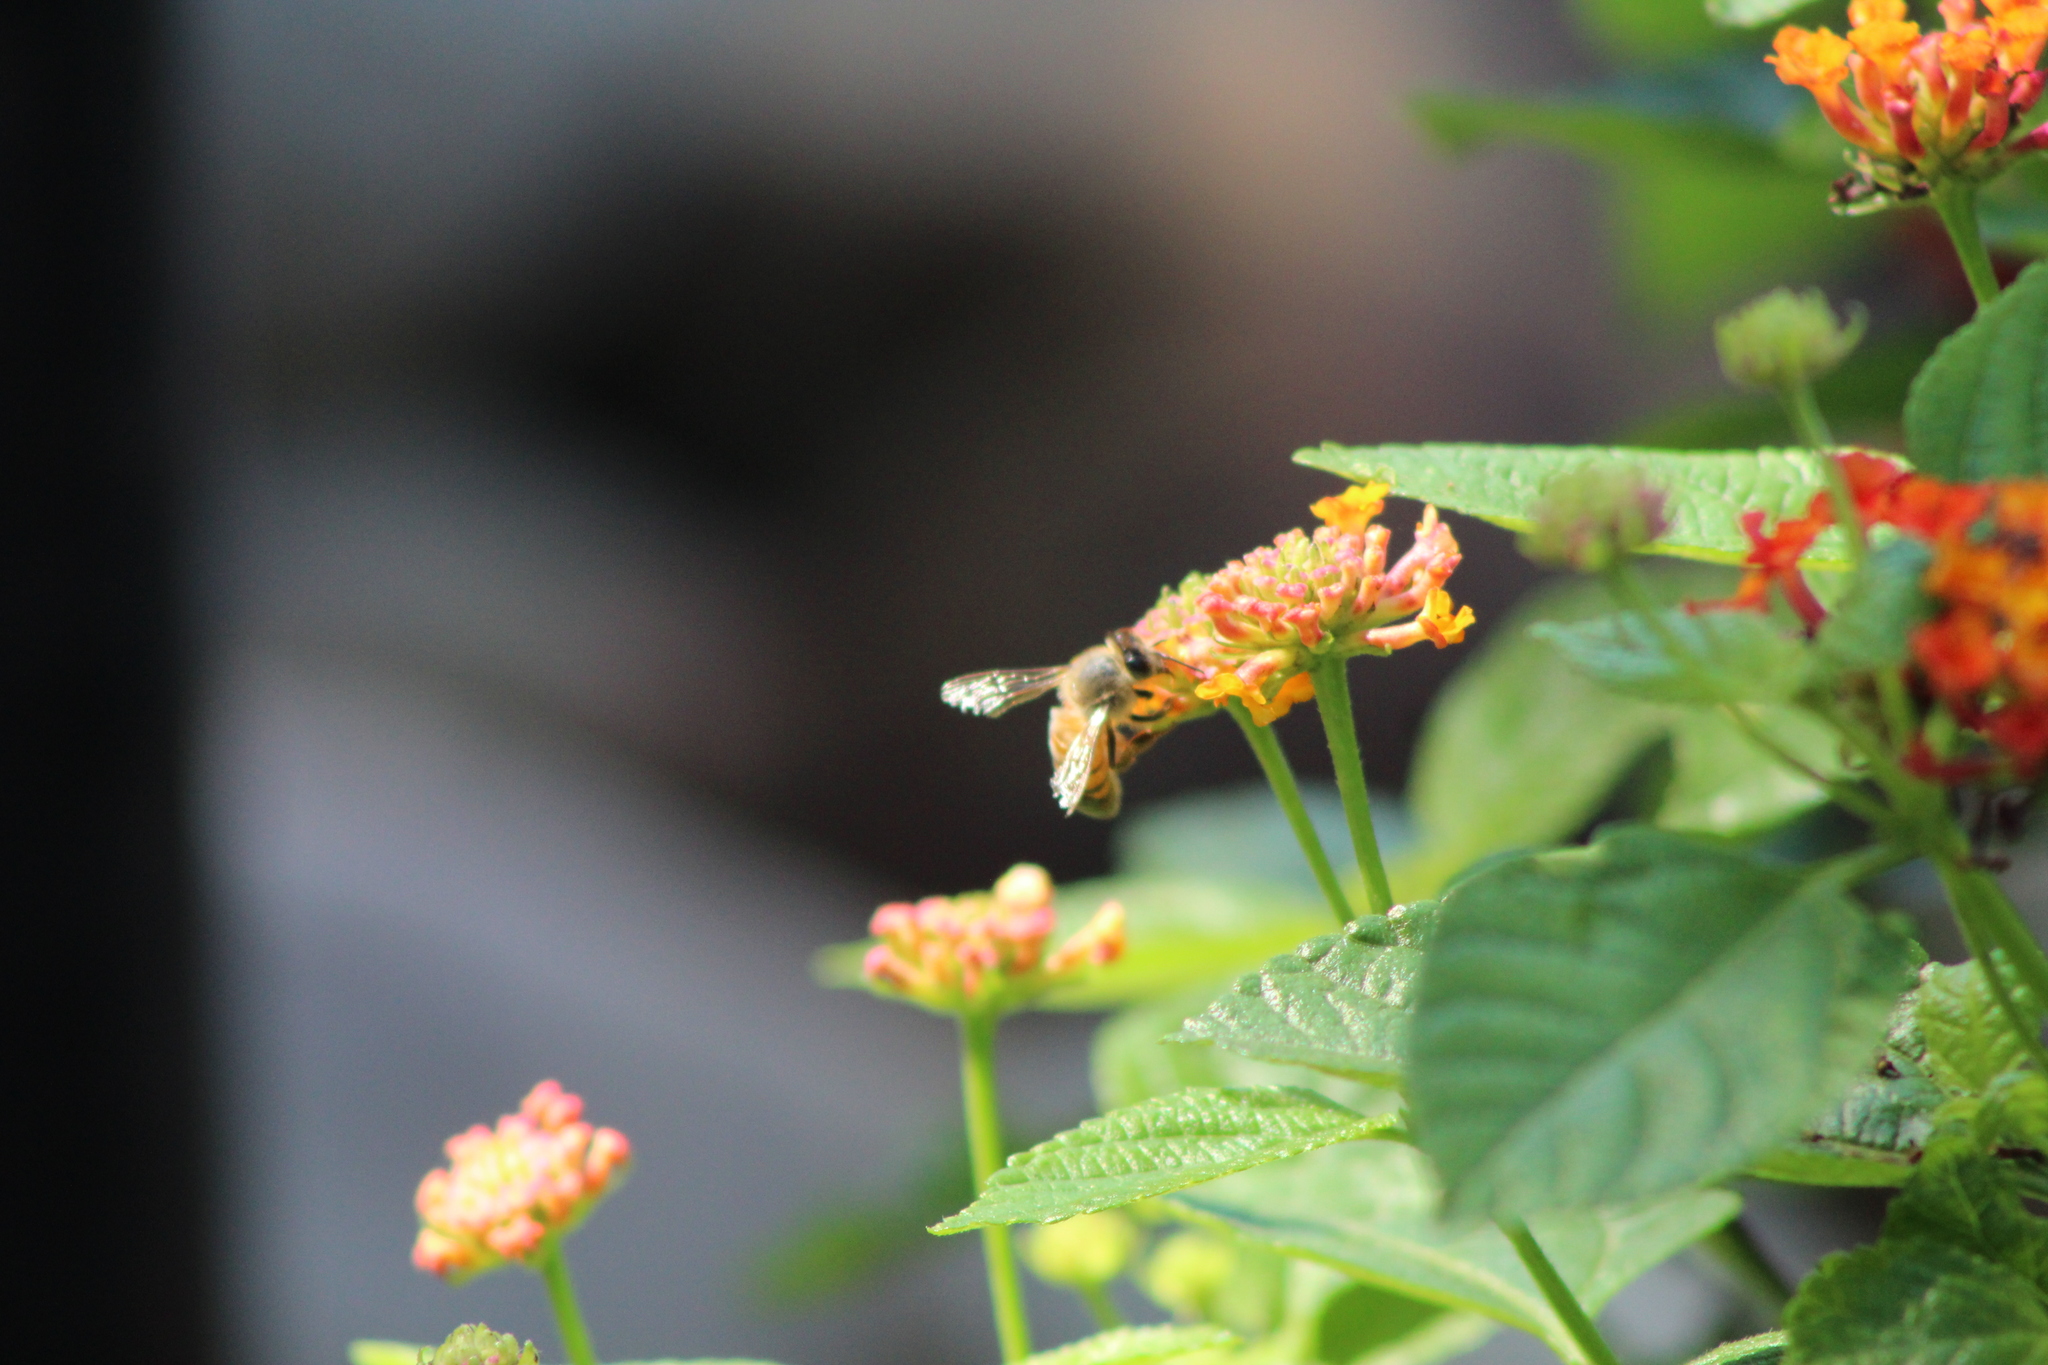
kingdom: Animalia
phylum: Arthropoda
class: Insecta
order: Hymenoptera
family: Apidae
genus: Apis
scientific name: Apis mellifera
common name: Honey bee
